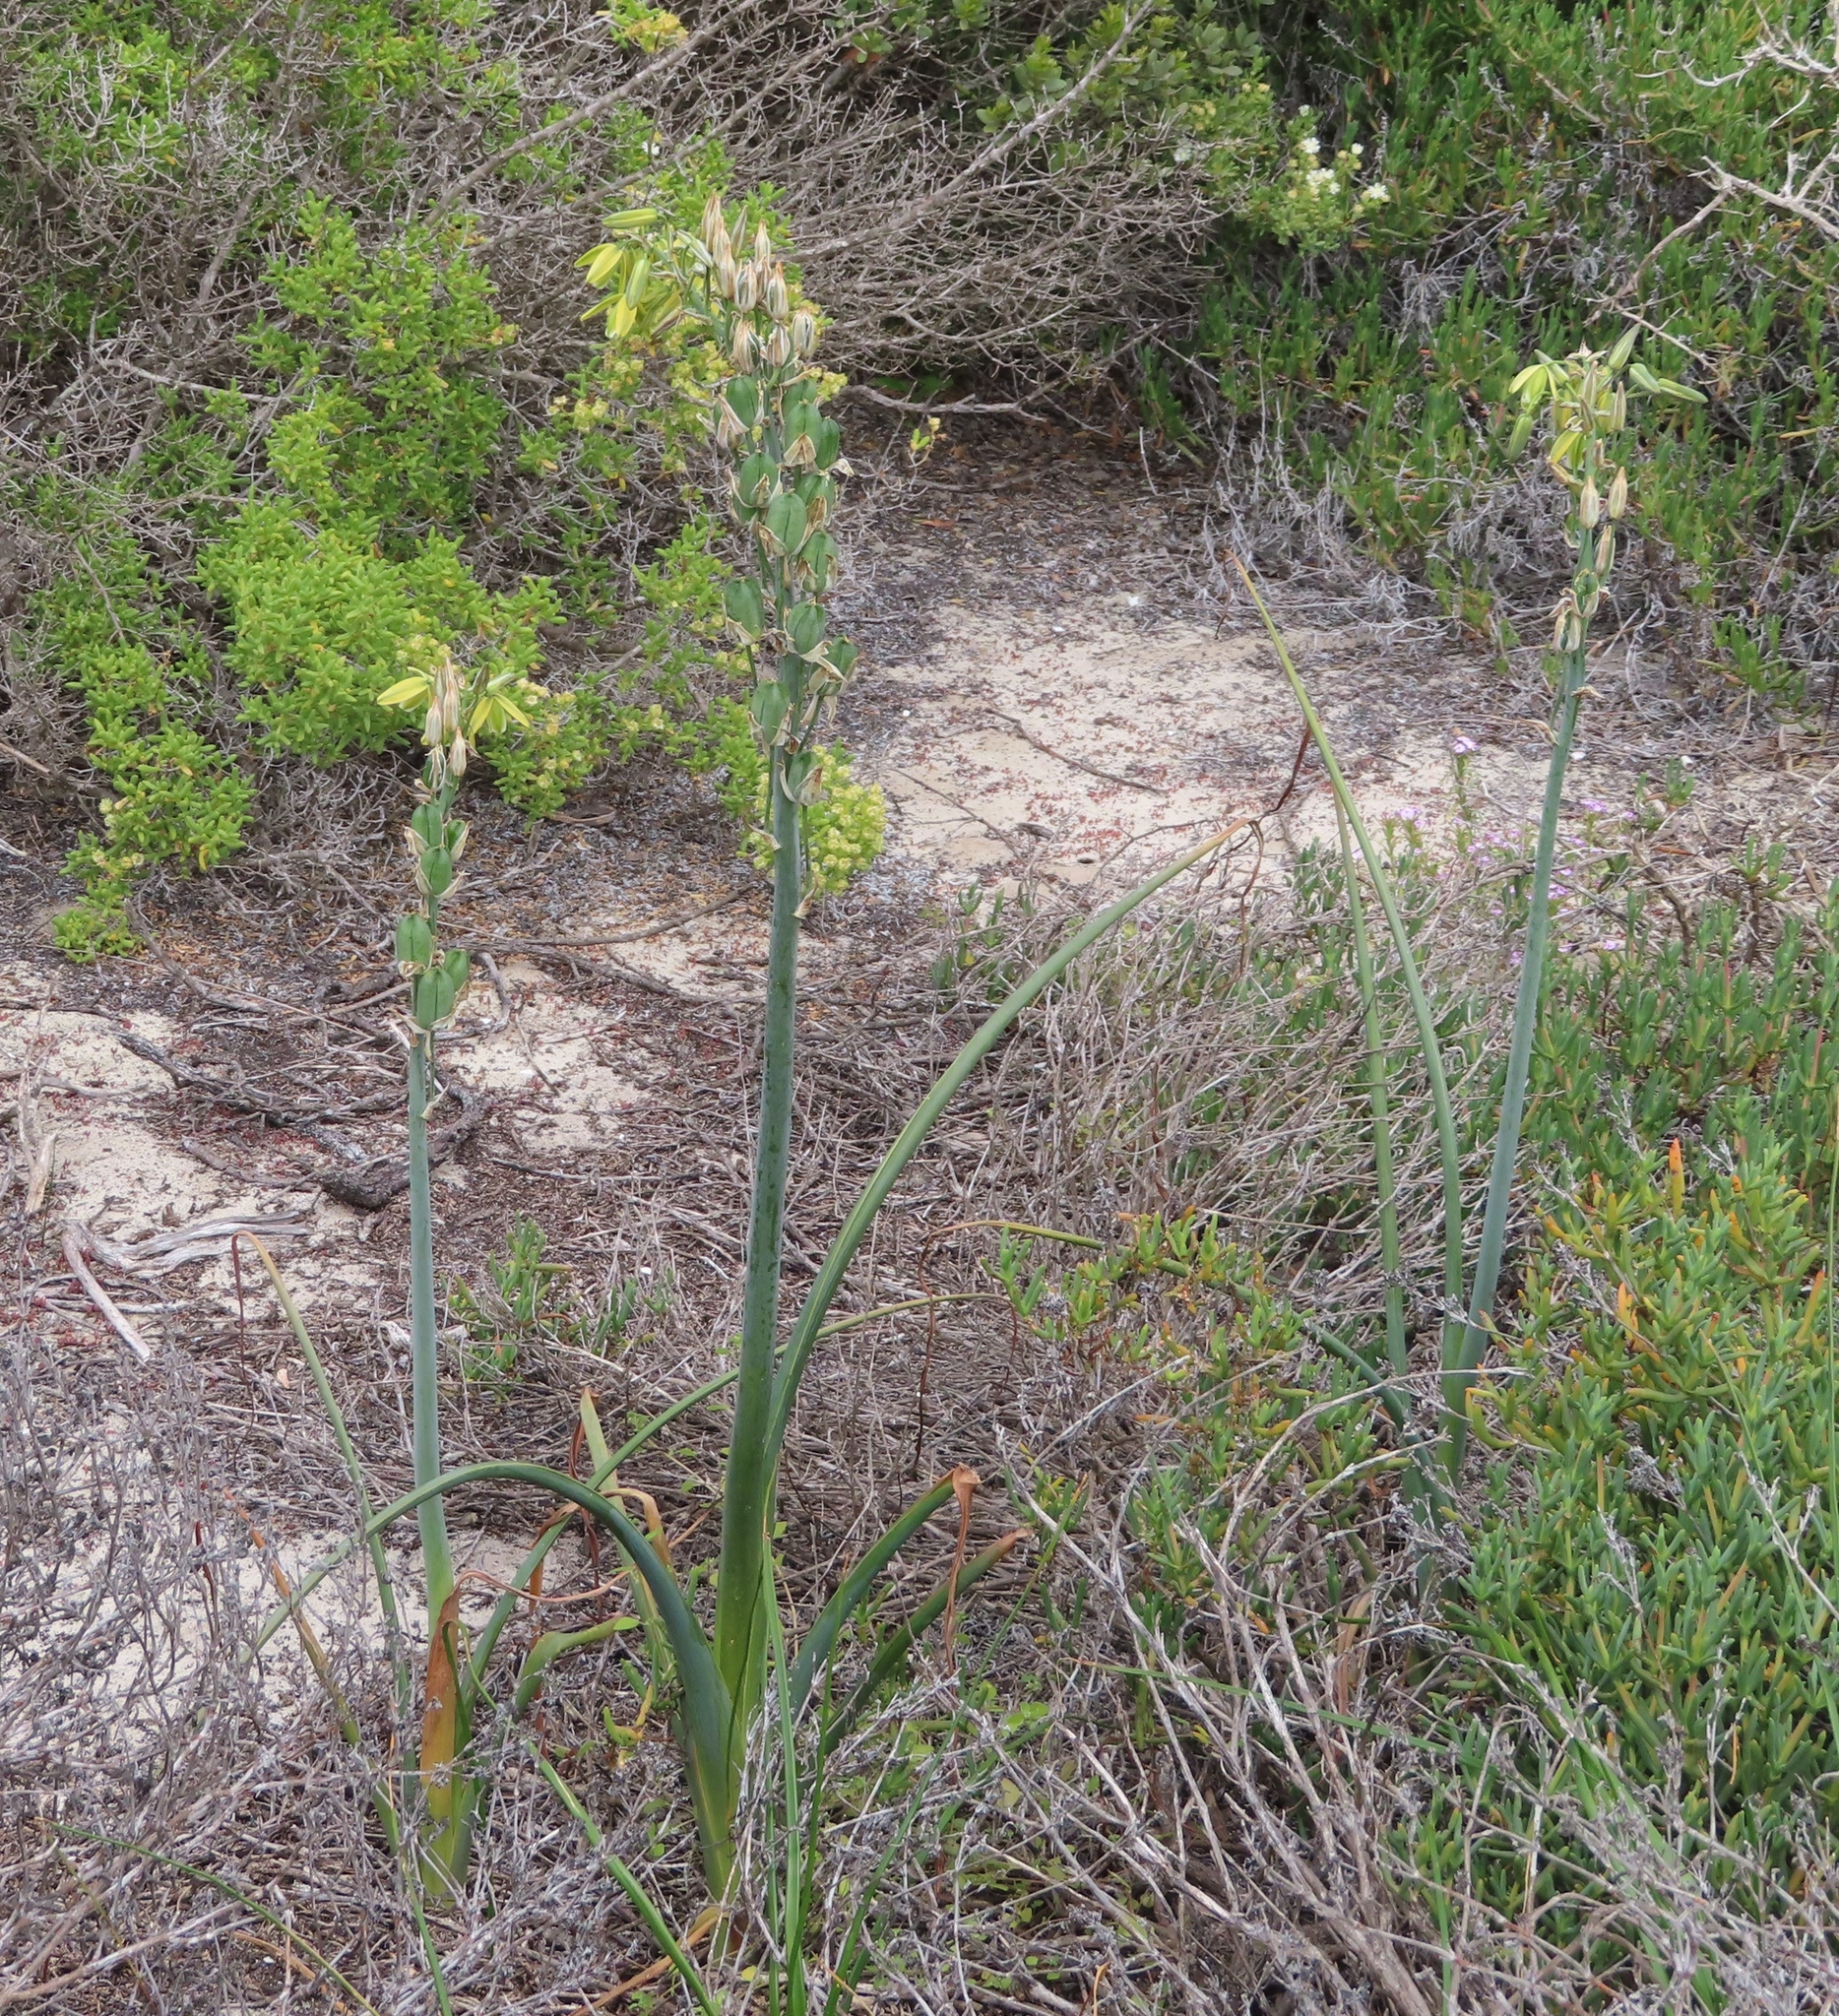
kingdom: Plantae
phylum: Tracheophyta
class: Liliopsida
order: Asparagales
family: Asparagaceae
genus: Albuca
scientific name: Albuca grandis
